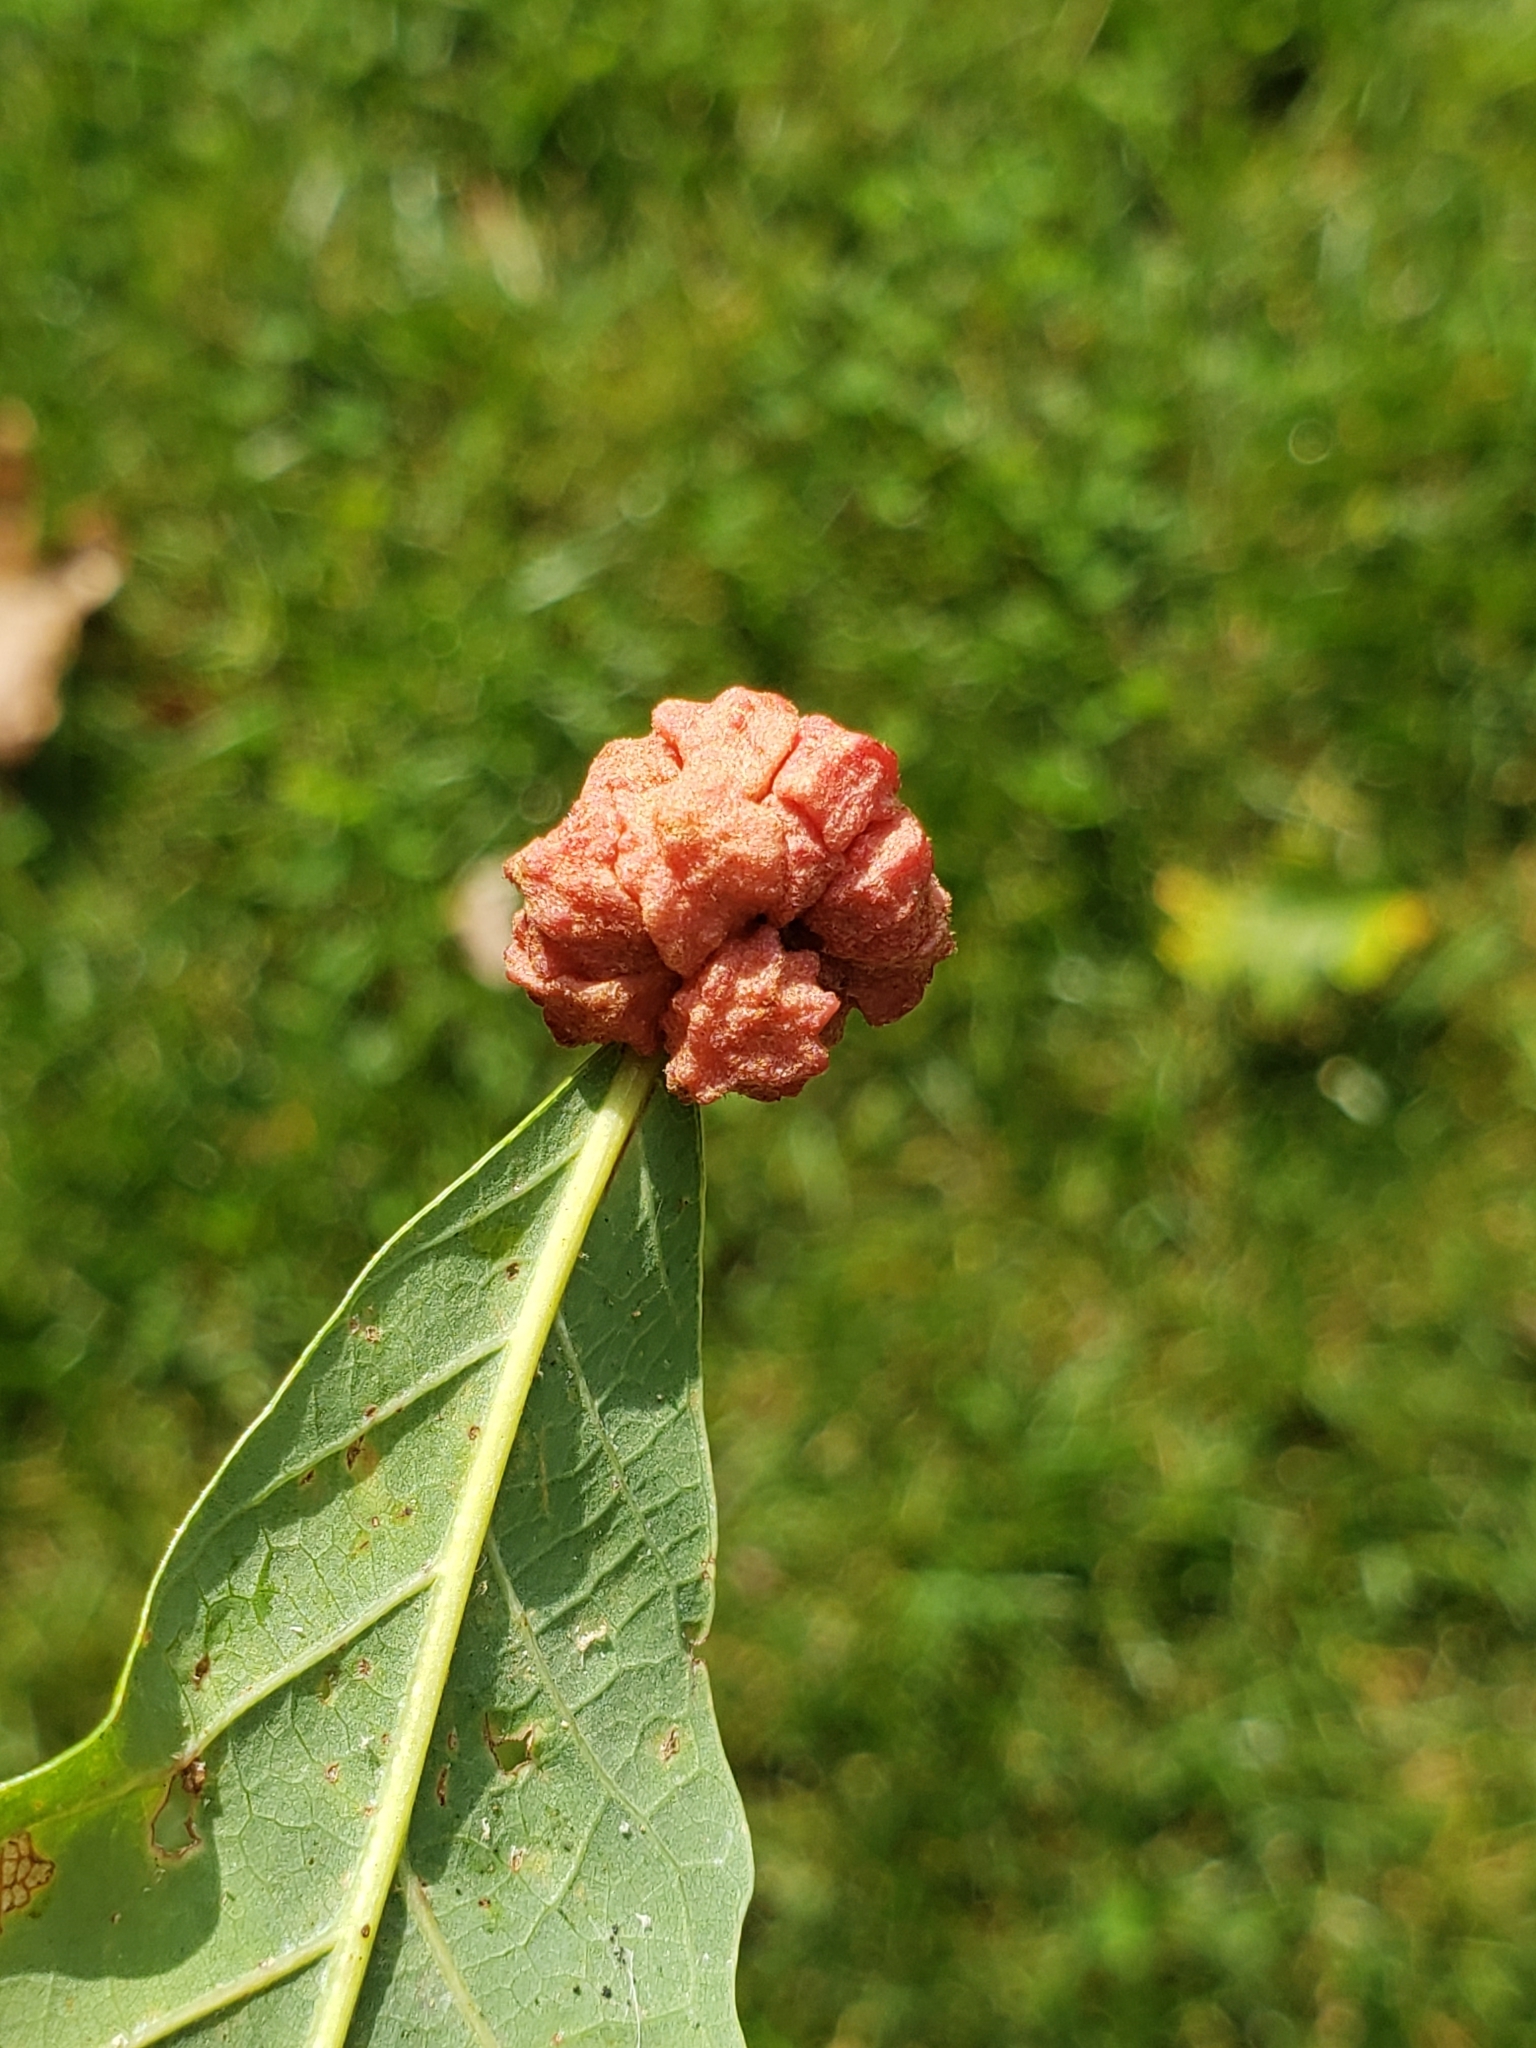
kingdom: Animalia
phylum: Arthropoda
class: Insecta
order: Hymenoptera
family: Cynipidae
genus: Andricus
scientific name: Andricus
